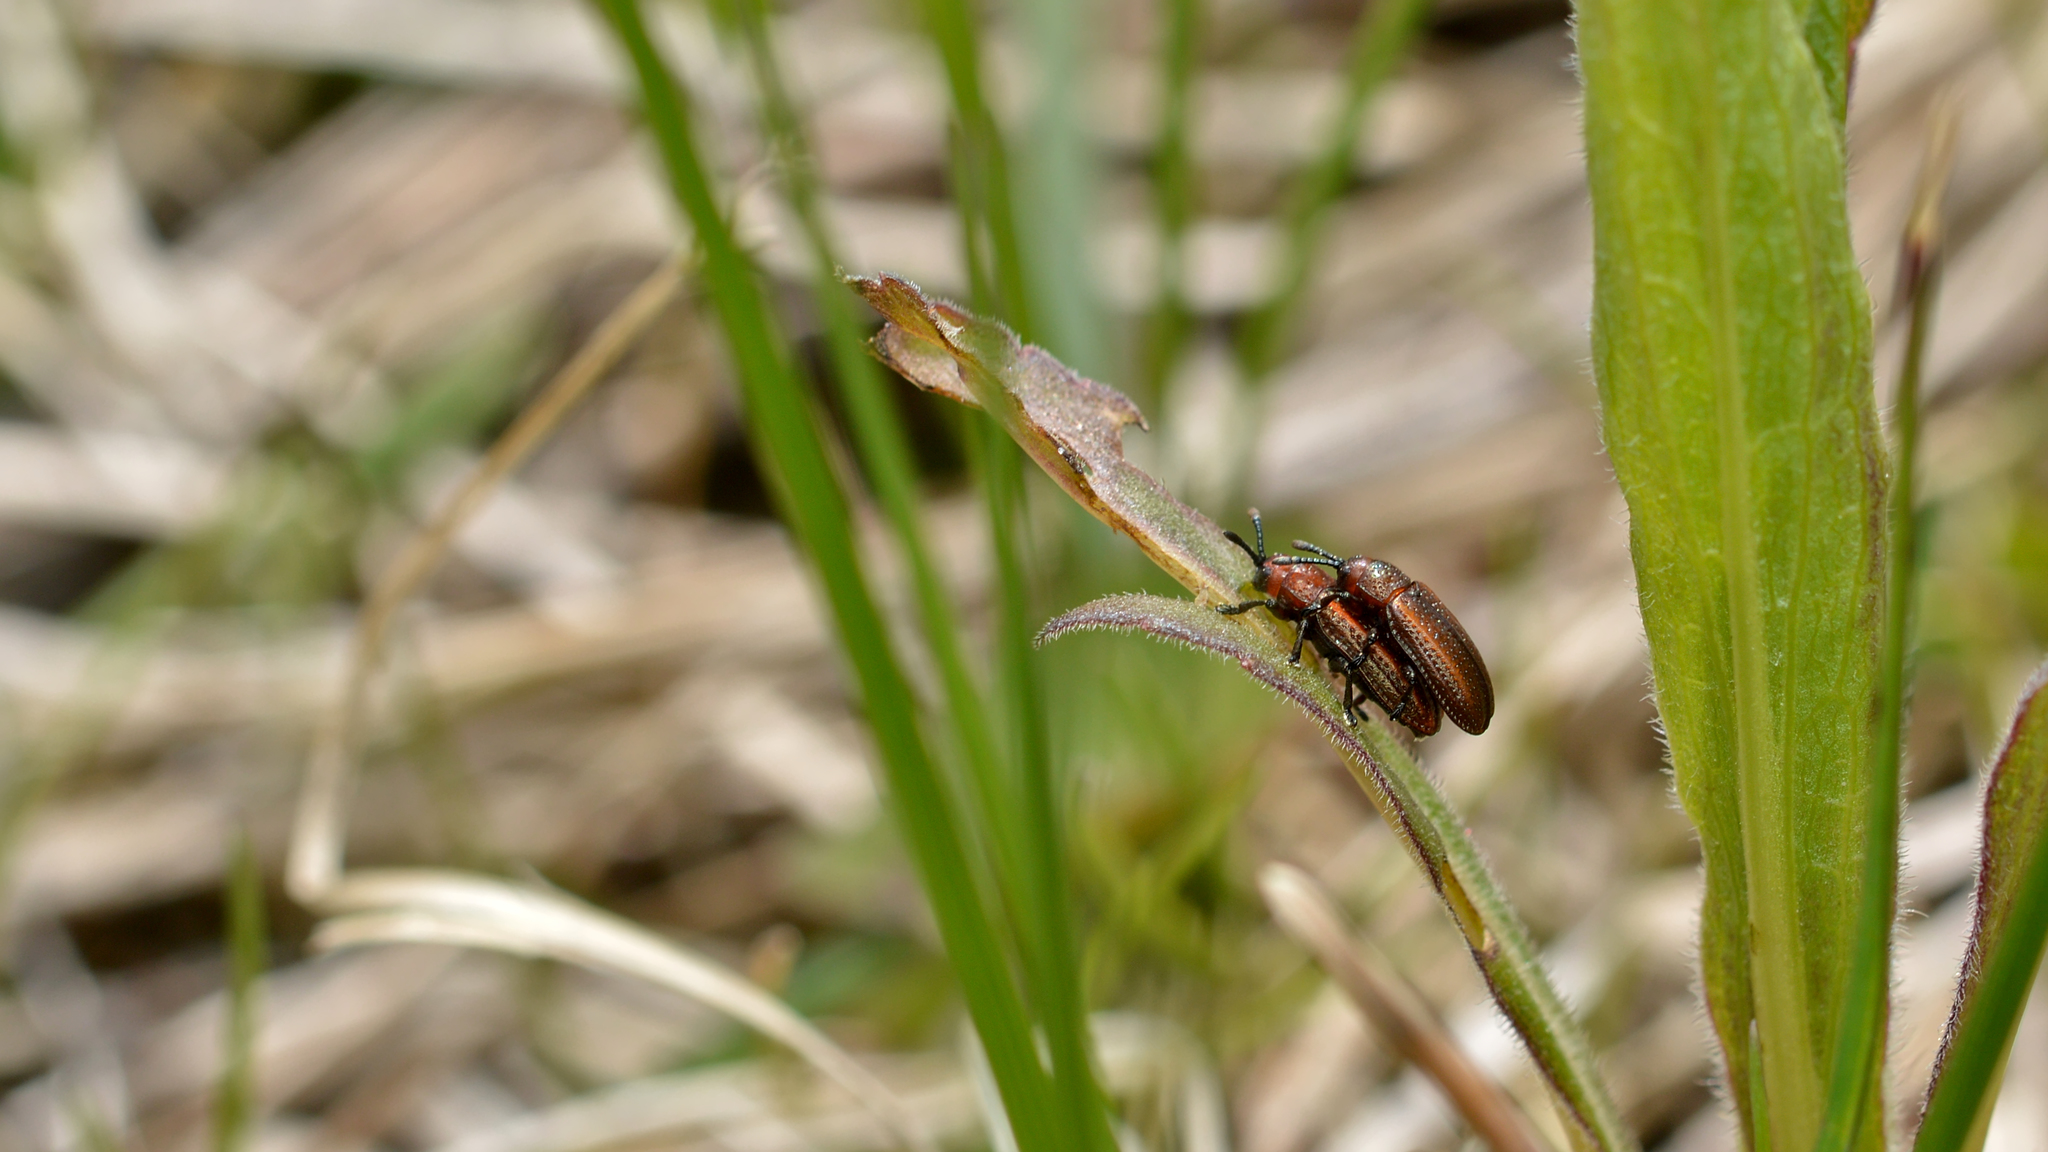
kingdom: Animalia
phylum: Arthropoda
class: Insecta
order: Coleoptera
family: Chrysomelidae
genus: Microrhopala
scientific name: Microrhopala vittata
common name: Goldenrod leaf miner beetle
